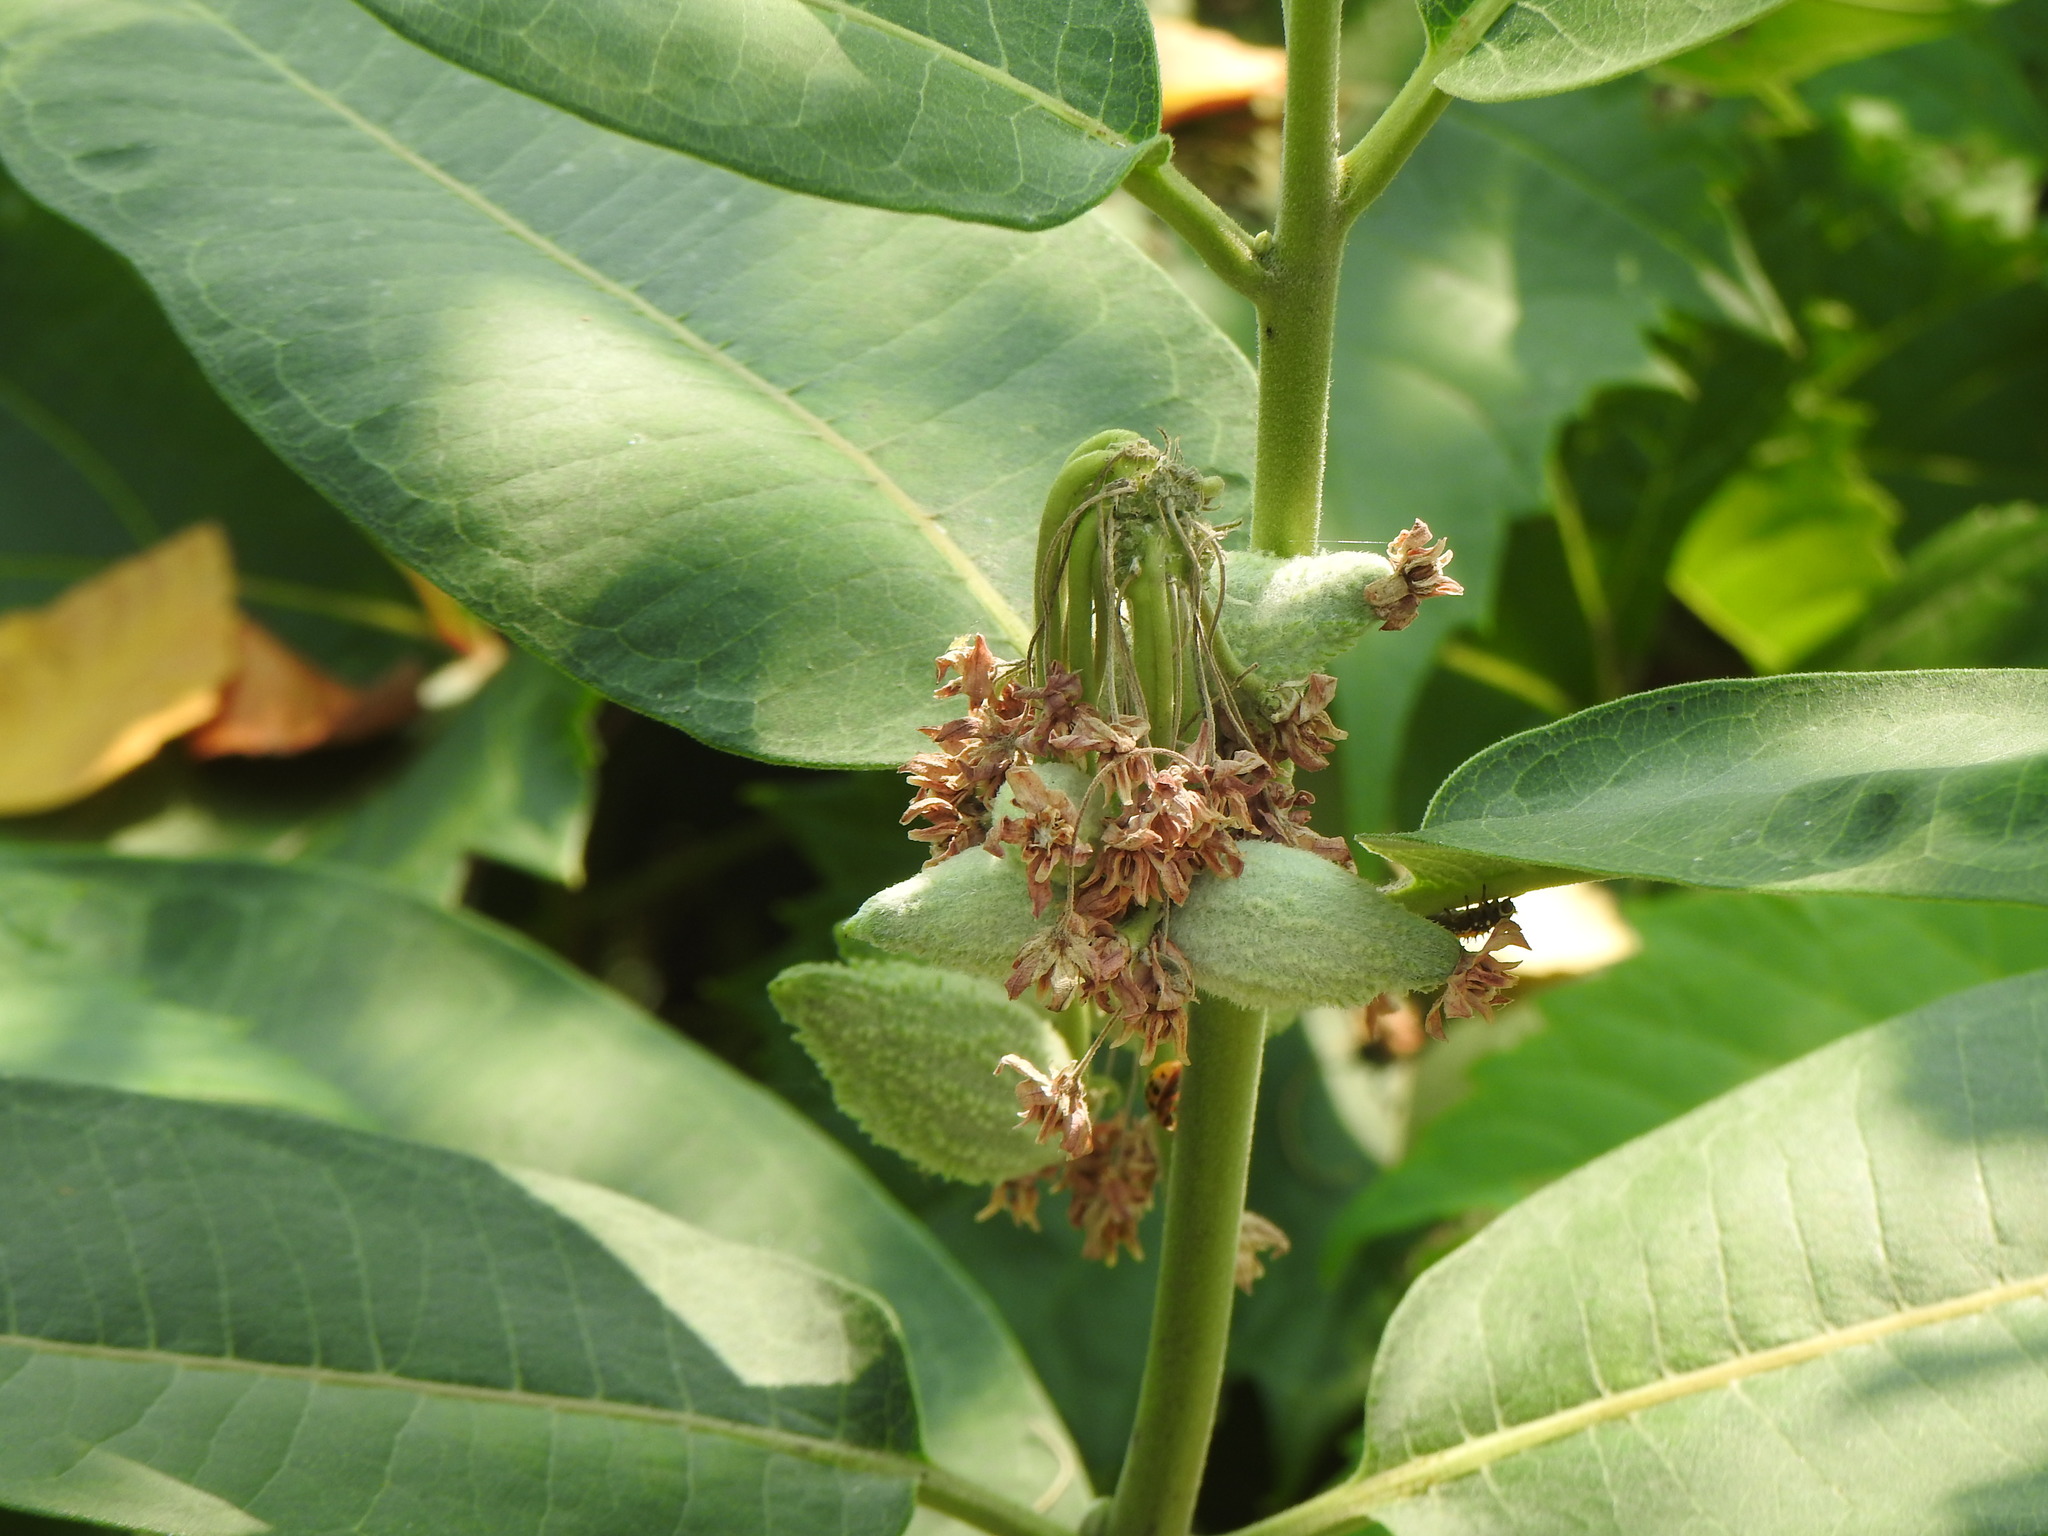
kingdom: Plantae
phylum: Tracheophyta
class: Magnoliopsida
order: Gentianales
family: Apocynaceae
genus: Asclepias
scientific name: Asclepias syriaca
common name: Common milkweed
